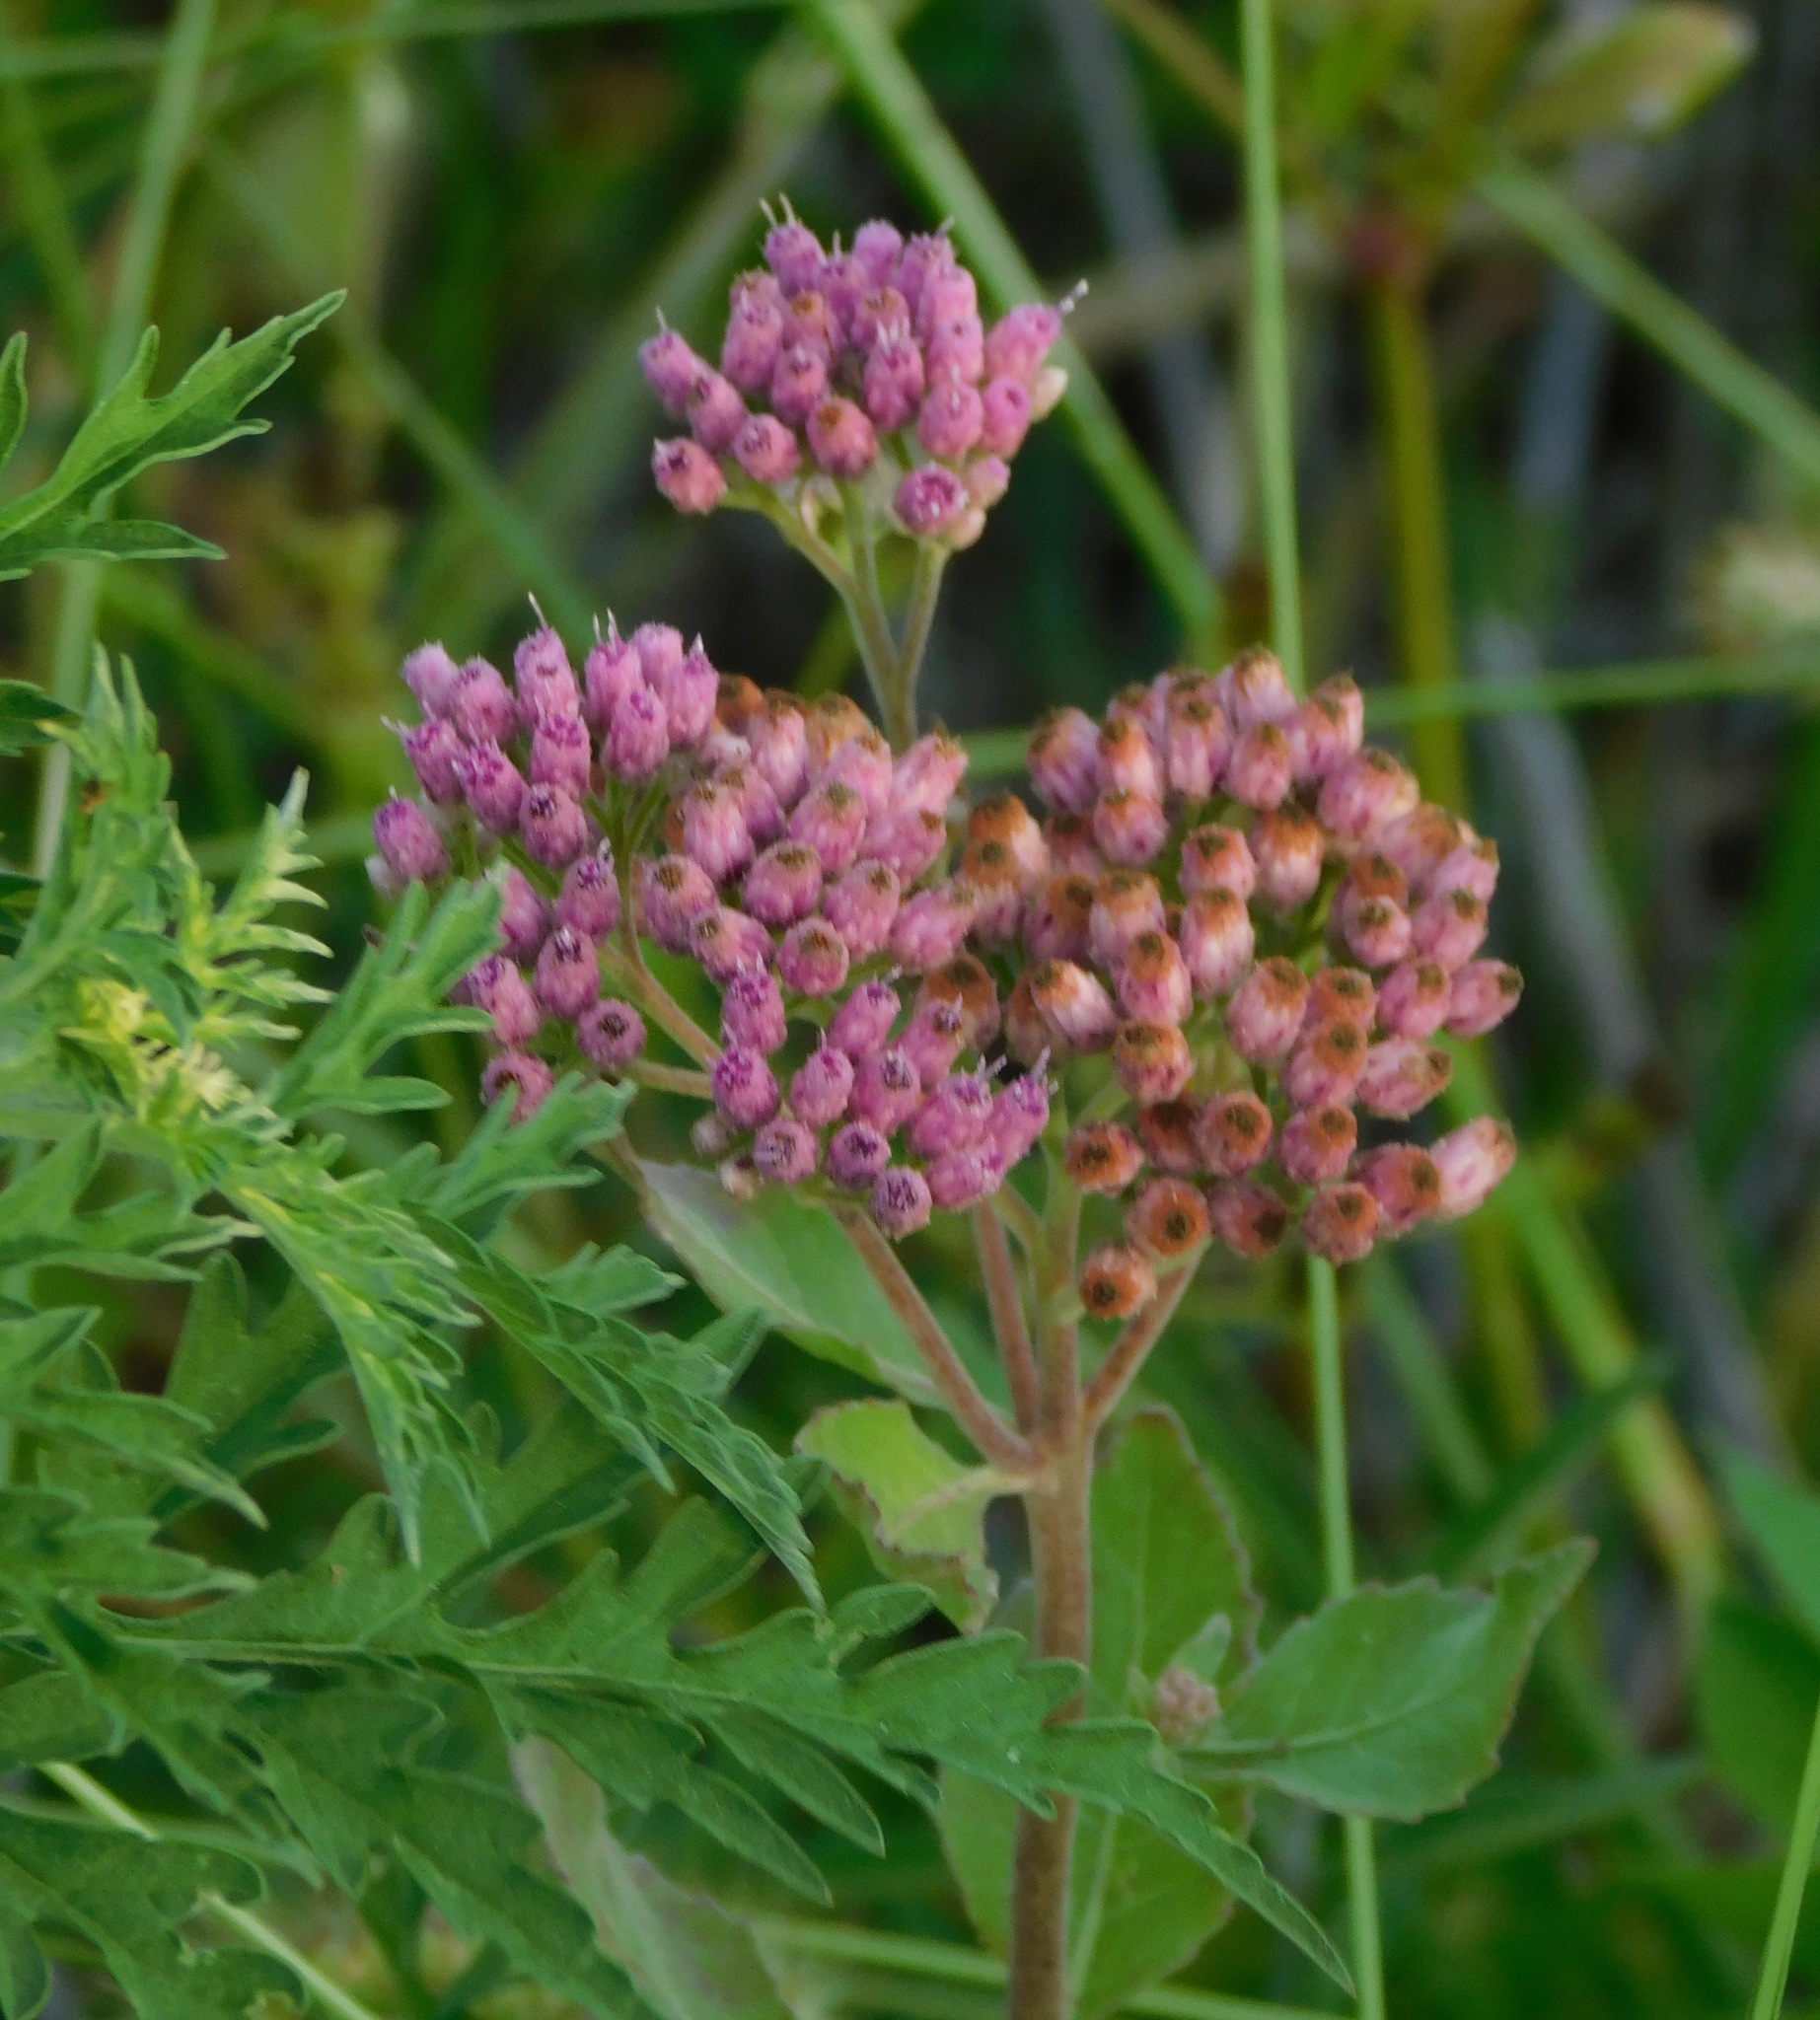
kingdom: Plantae
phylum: Tracheophyta
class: Magnoliopsida
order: Asterales
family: Asteraceae
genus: Pluchea
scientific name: Pluchea odorata
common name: Saltmarsh fleabane
